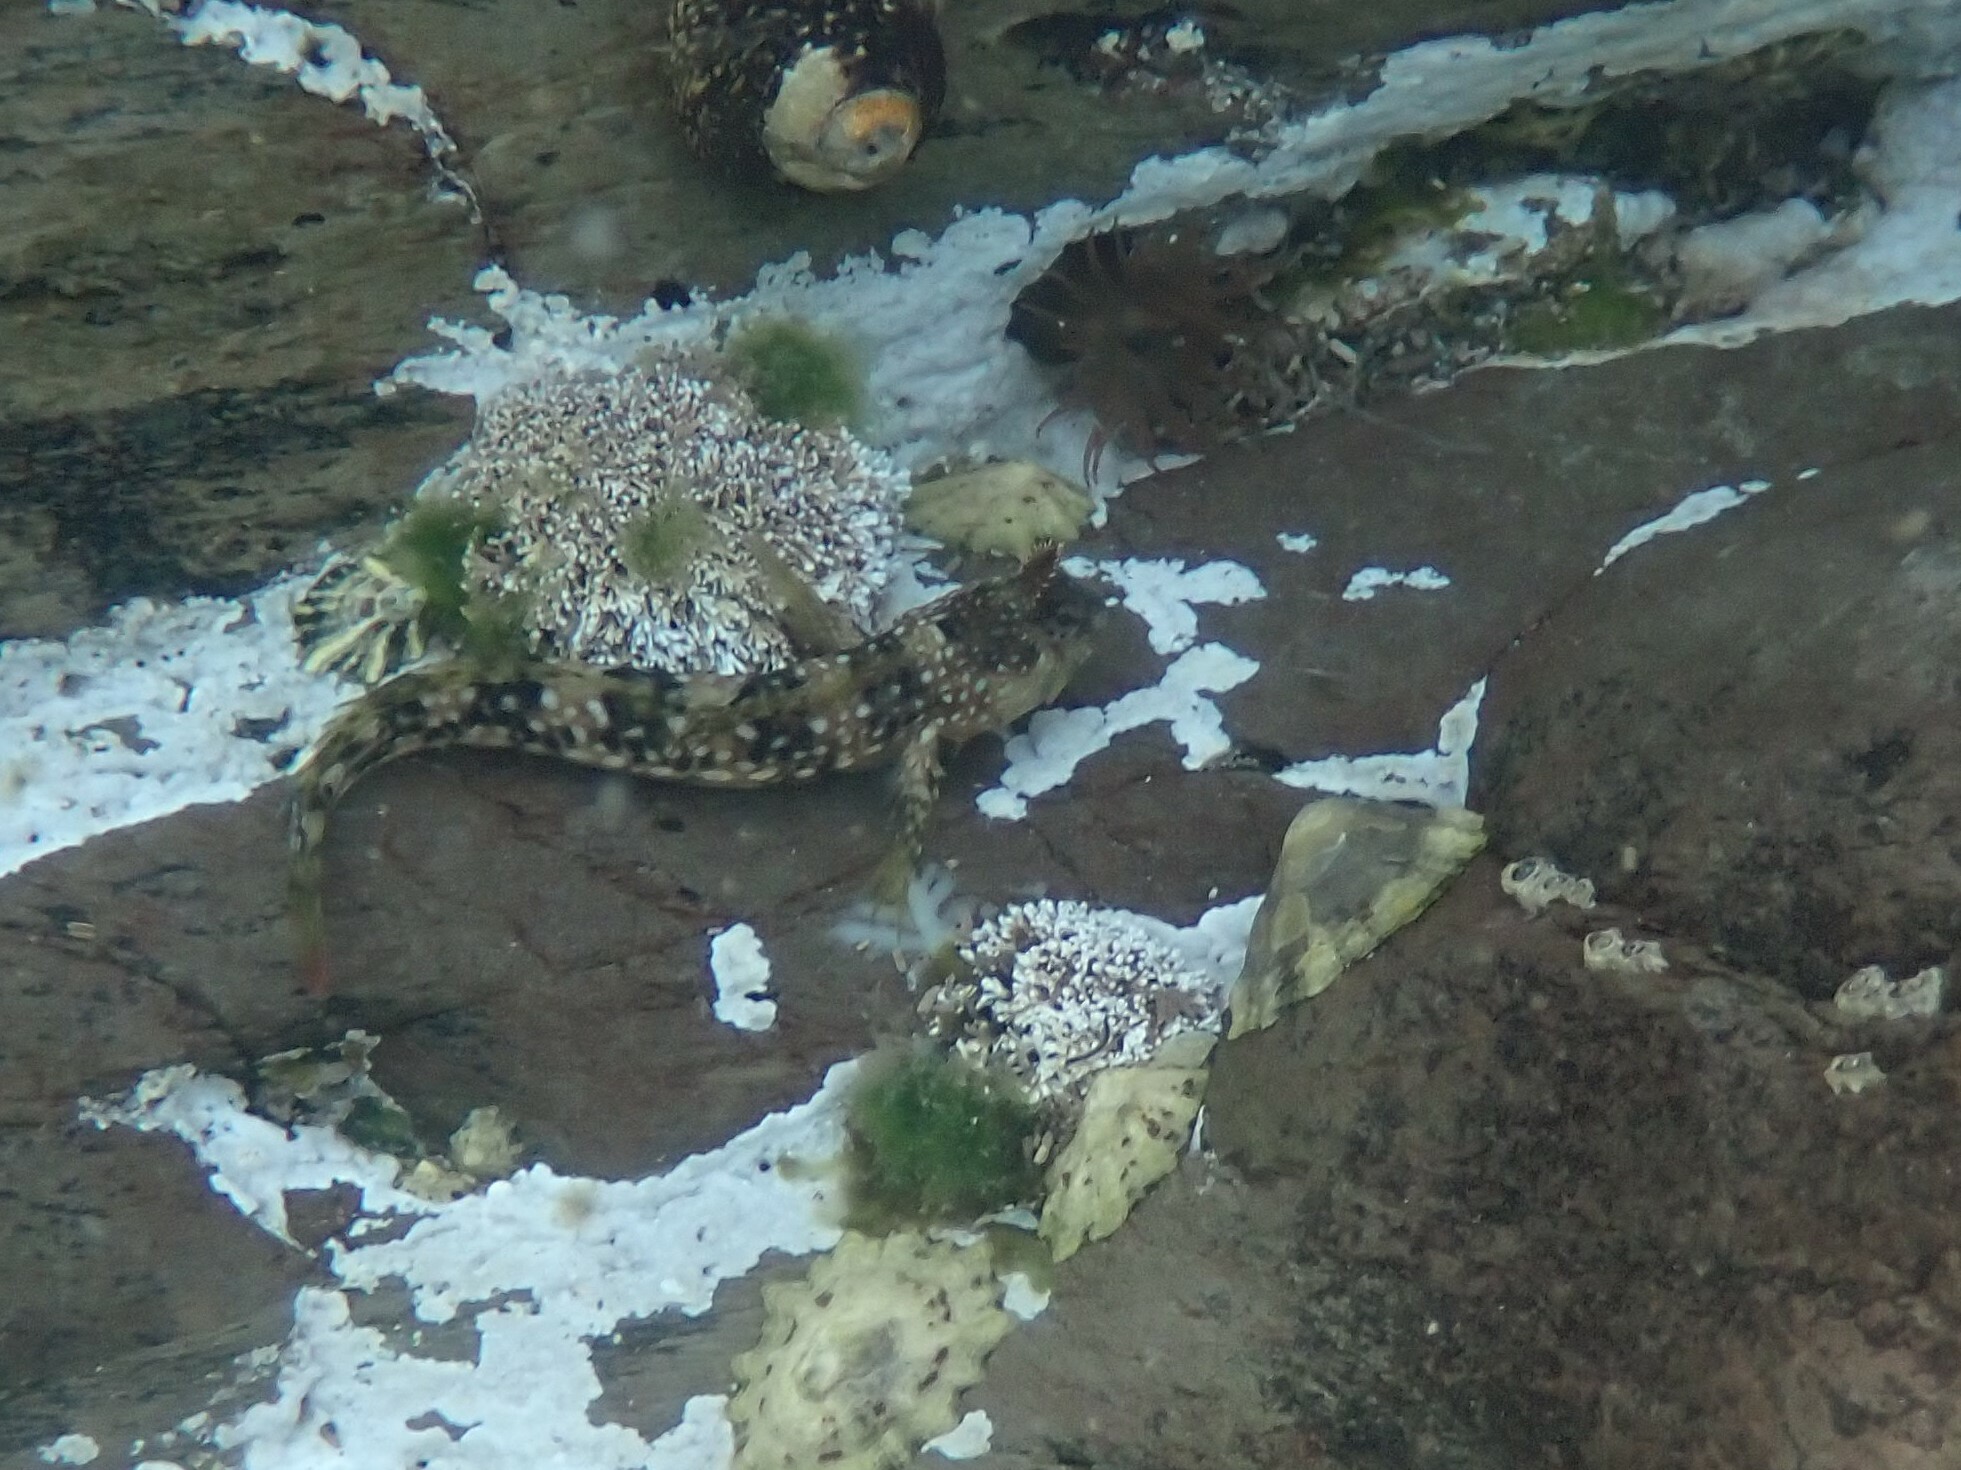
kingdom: Animalia
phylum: Chordata
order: Perciformes
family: Blenniidae
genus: Coryphoblennius
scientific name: Coryphoblennius galerita
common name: Montagu's blenny
